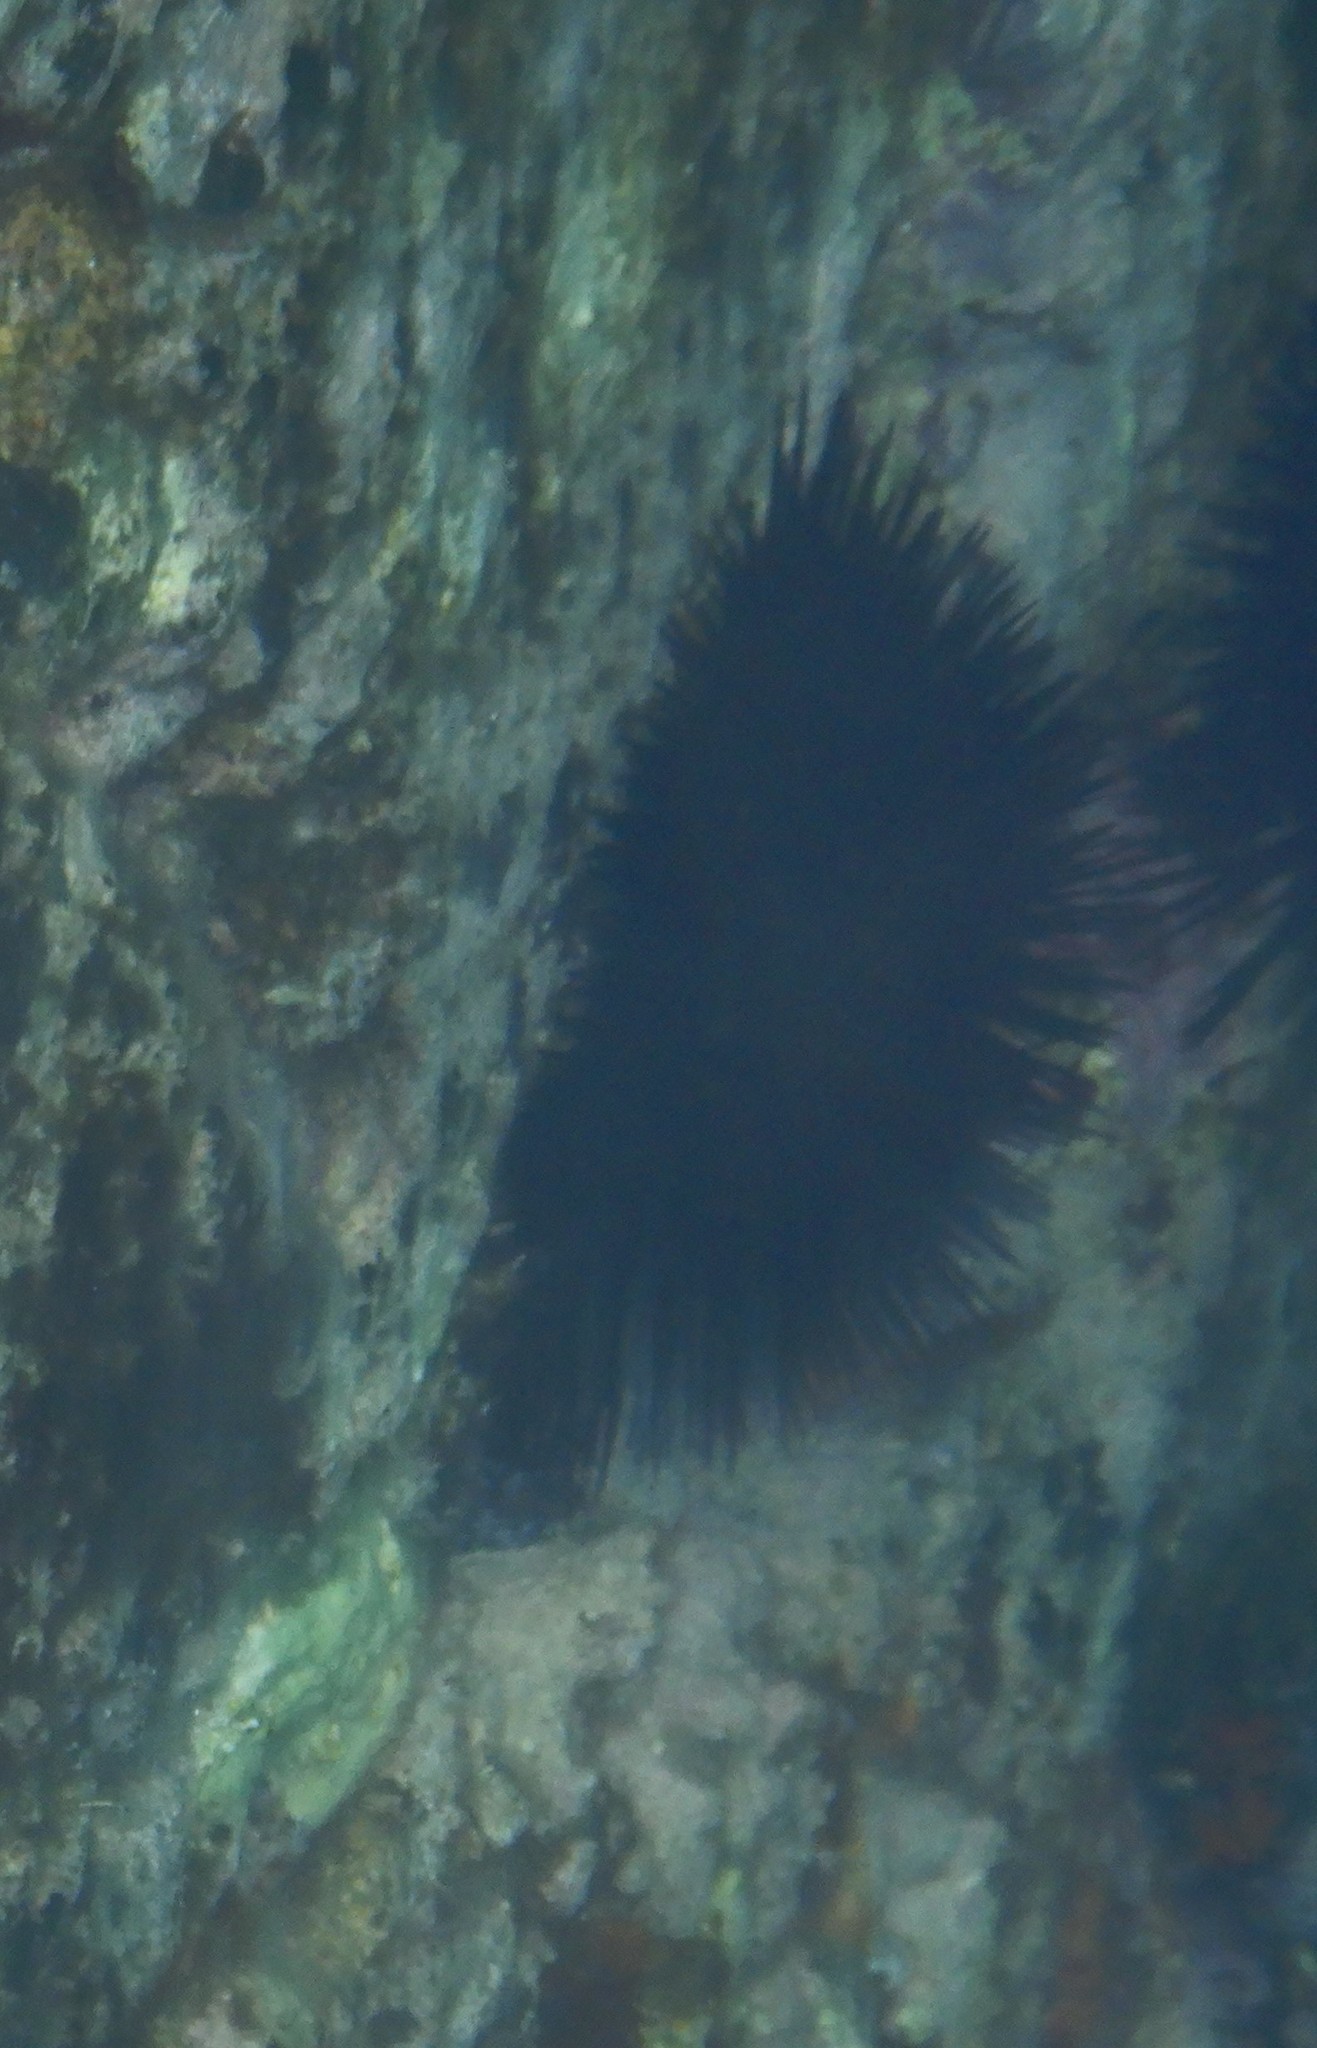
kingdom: Animalia
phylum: Echinodermata
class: Echinoidea
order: Arbacioida
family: Arbaciidae
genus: Arbacia
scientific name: Arbacia lixula
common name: Black sea urchin
